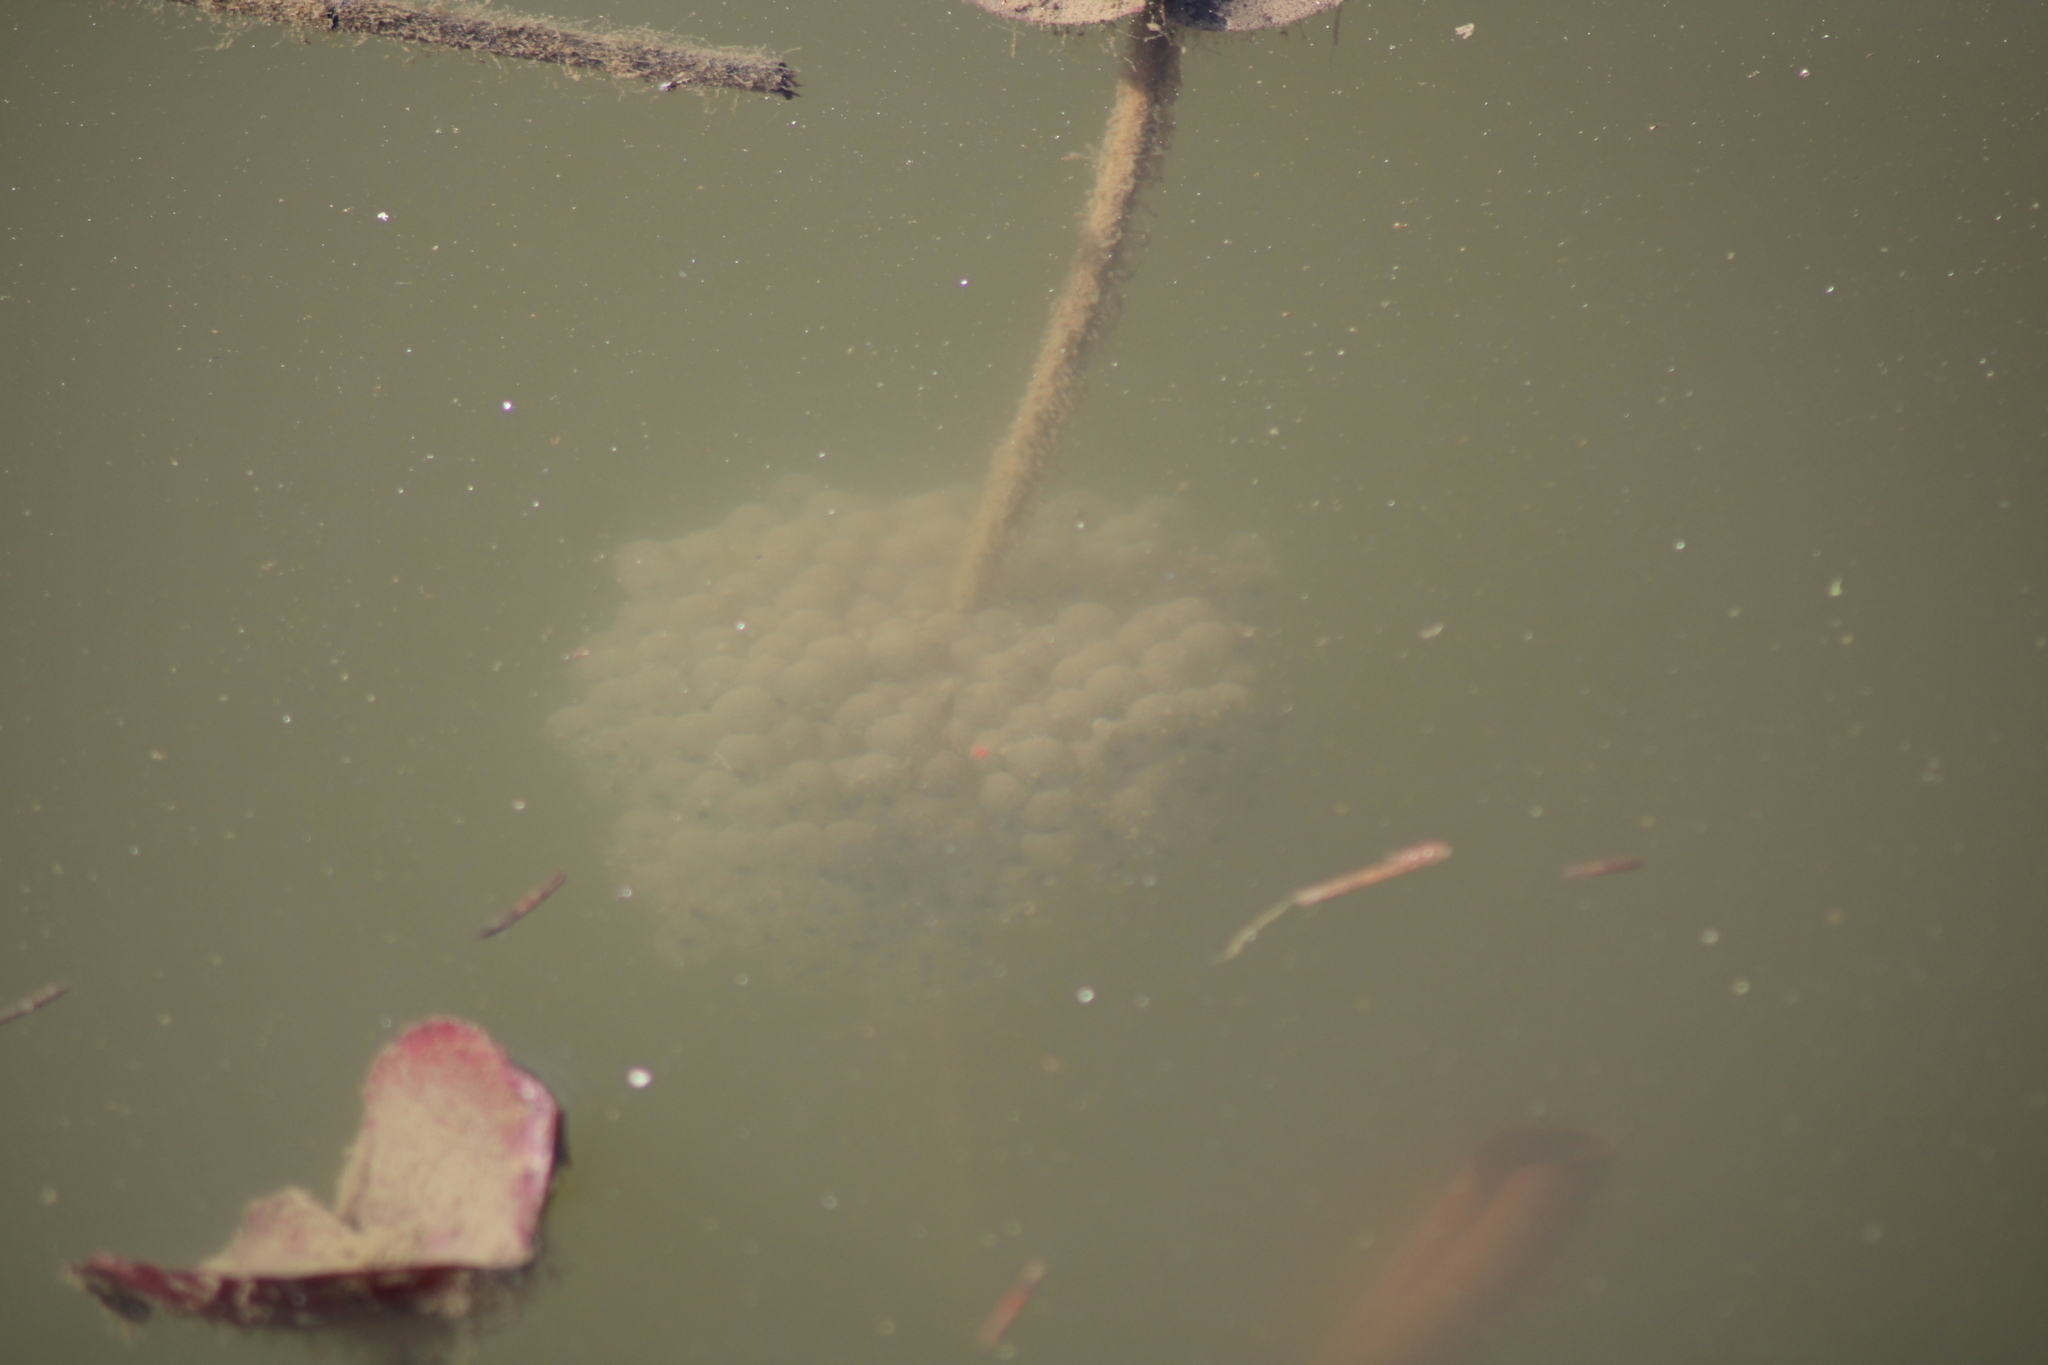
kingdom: Animalia
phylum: Chordata
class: Amphibia
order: Anura
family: Ranidae
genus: Rana
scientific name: Rana dalmatina
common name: Agile frog
